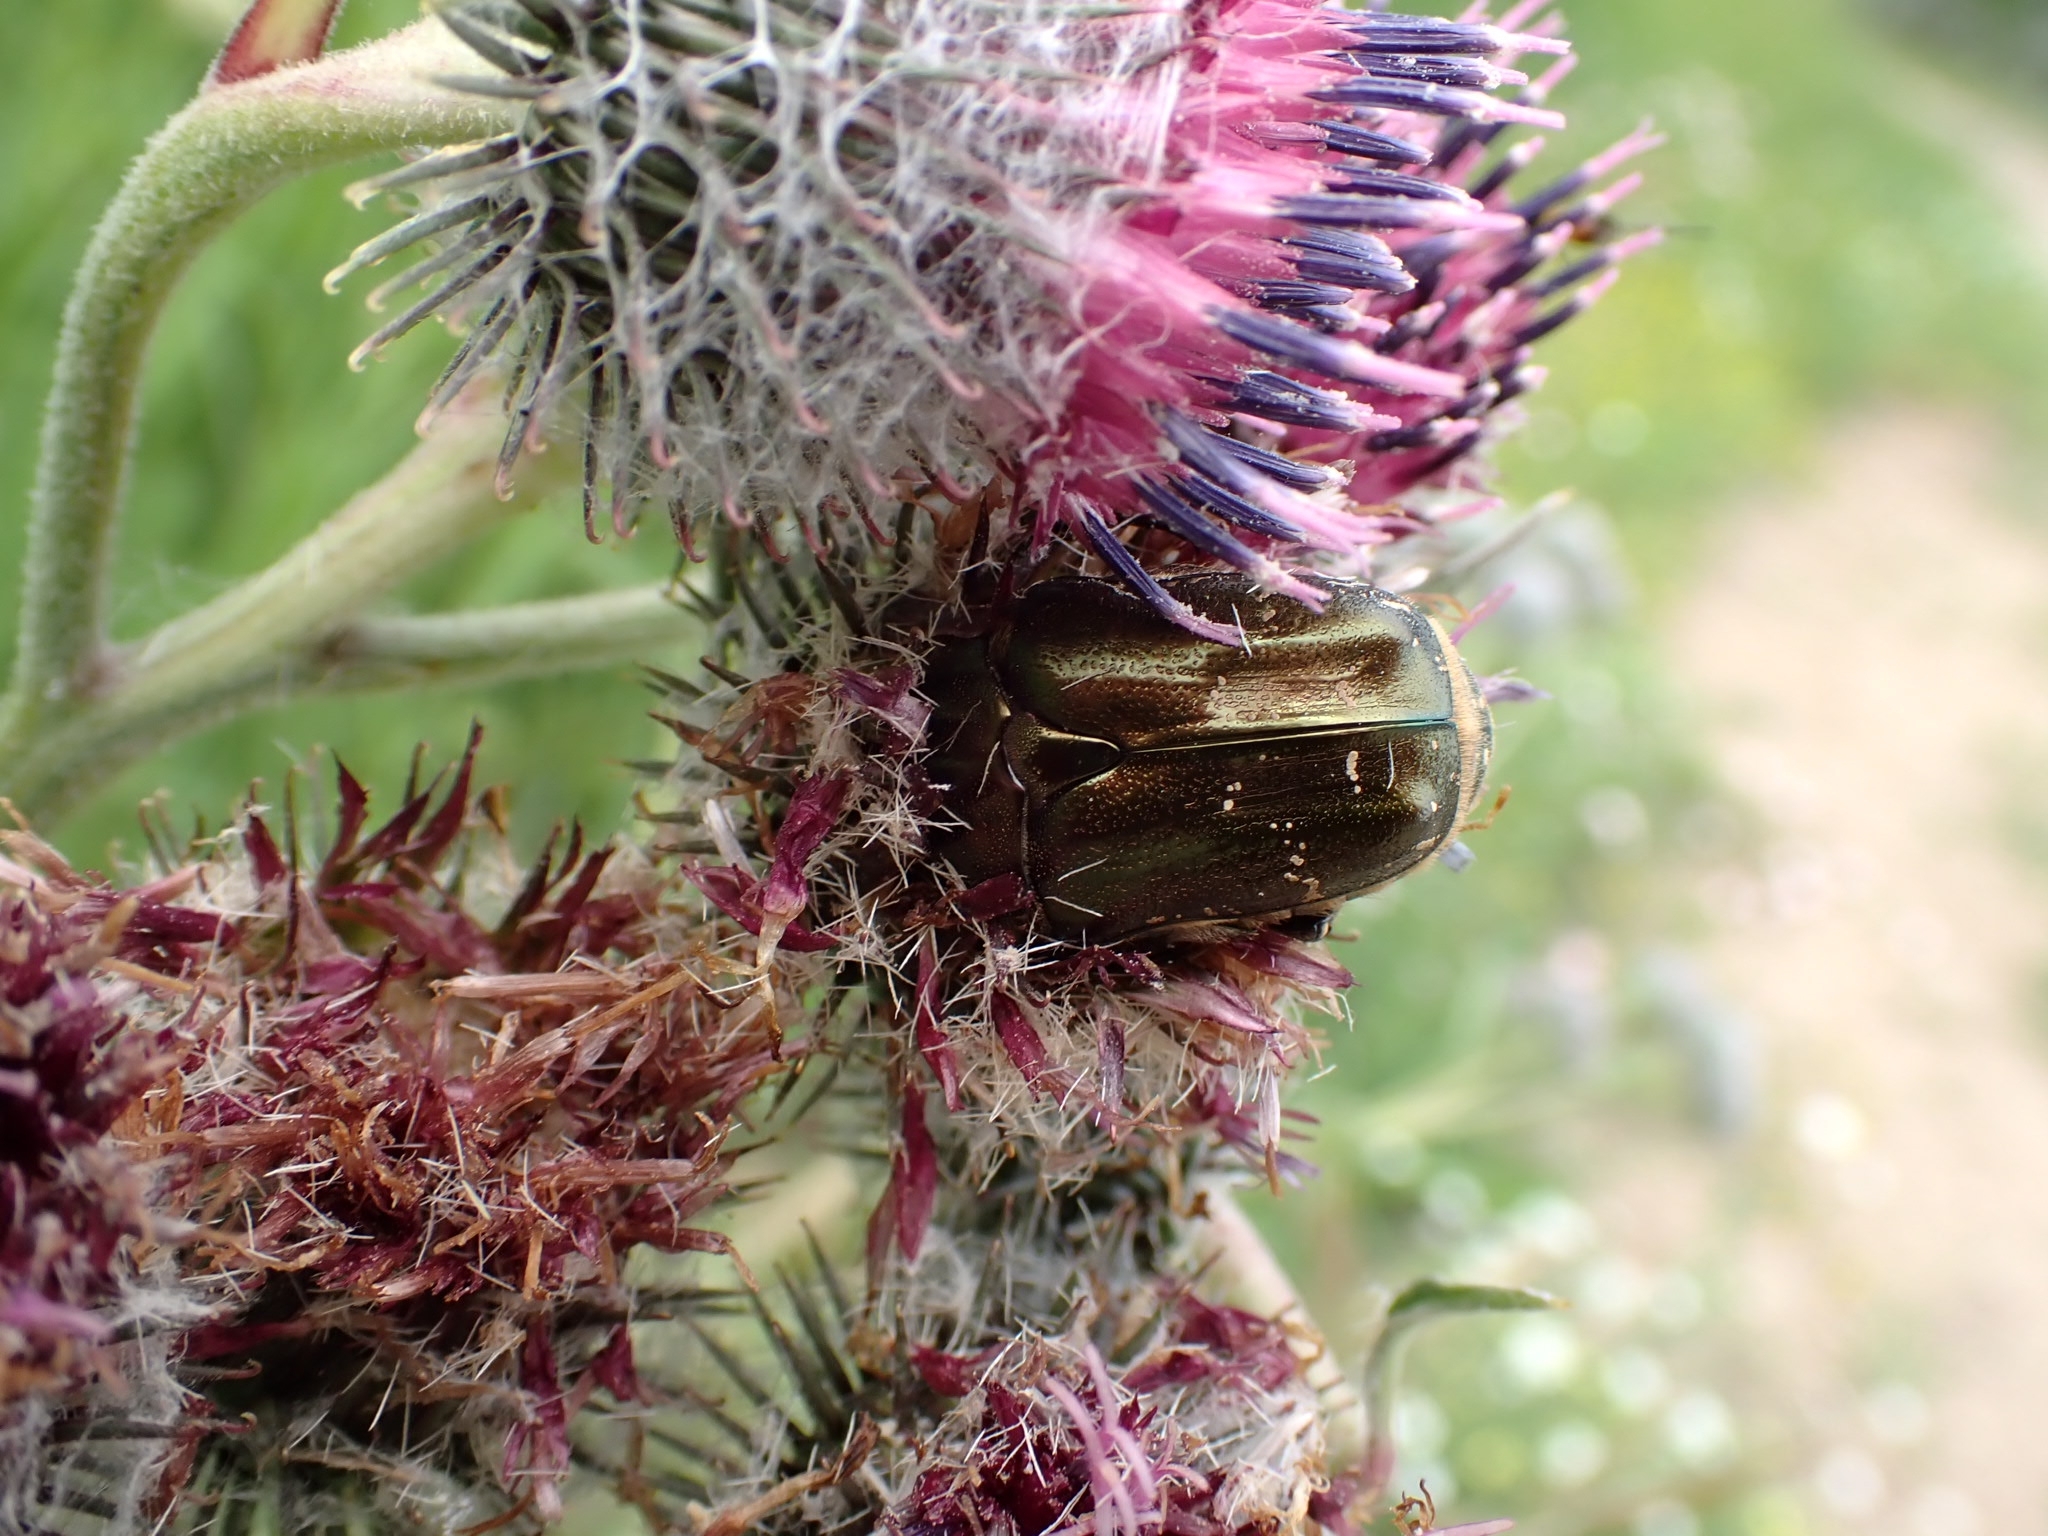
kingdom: Animalia
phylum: Arthropoda
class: Insecta
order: Coleoptera
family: Scarabaeidae
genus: Protaetia
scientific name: Protaetia cuprea
